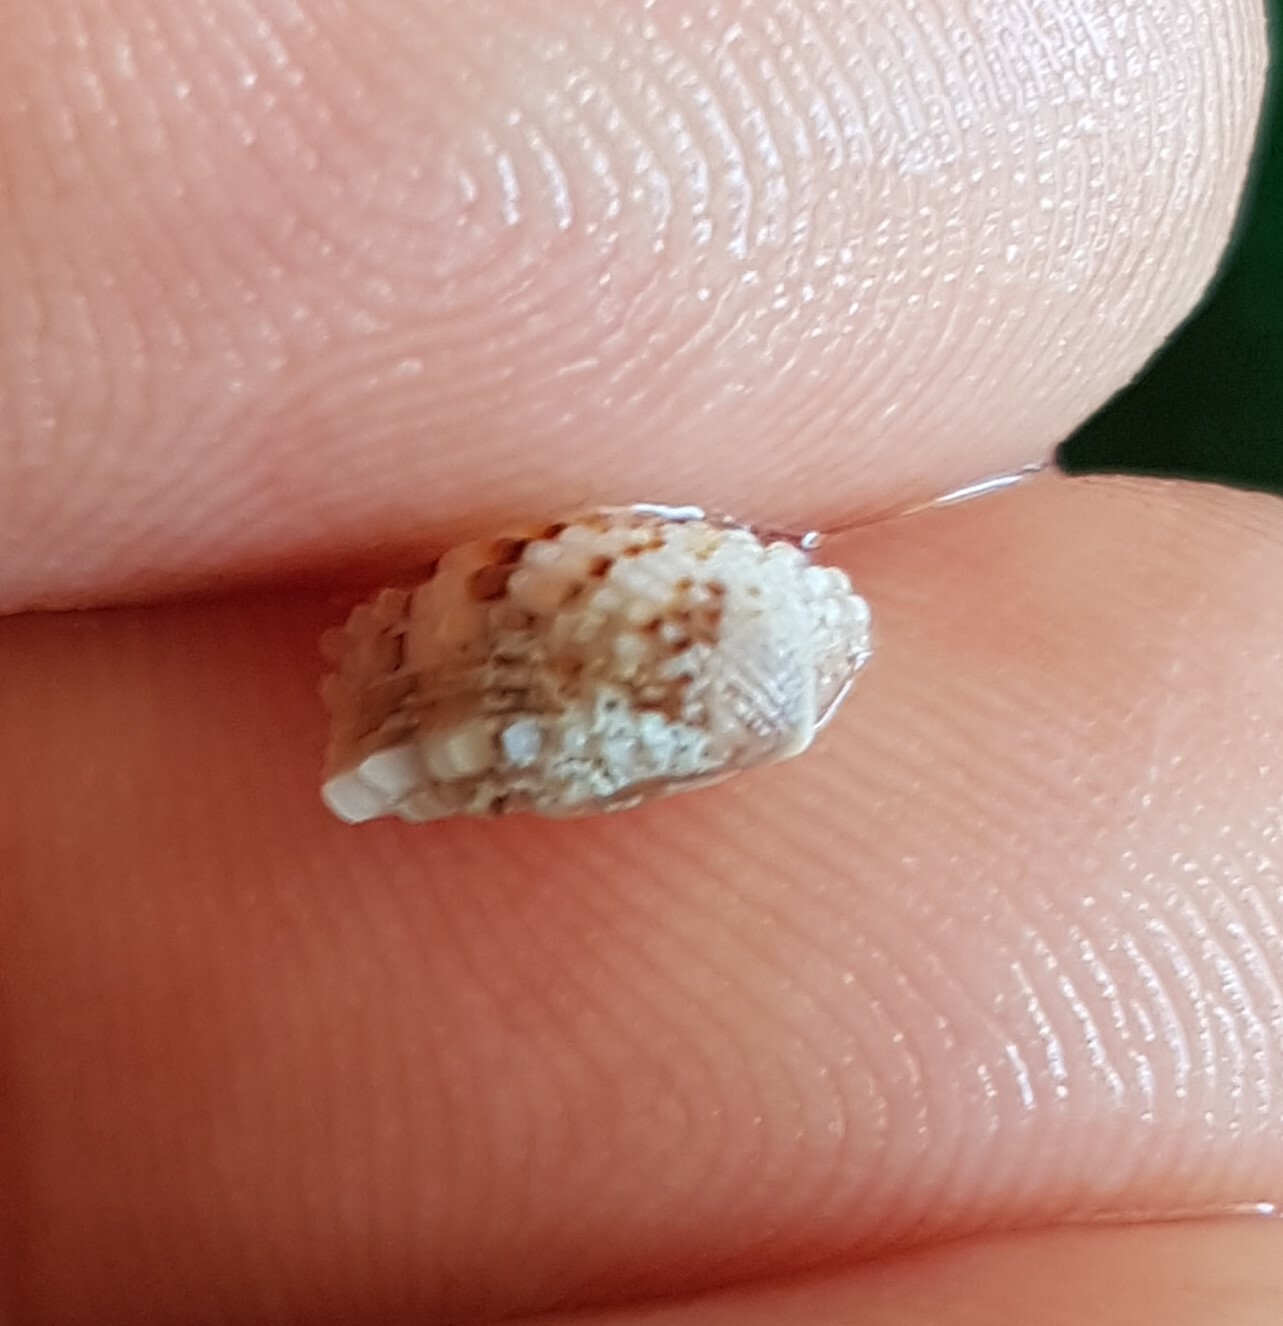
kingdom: Animalia
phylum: Mollusca
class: Bivalvia
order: Carditida
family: Carditidae
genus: Glans
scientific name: Glans trapezia
